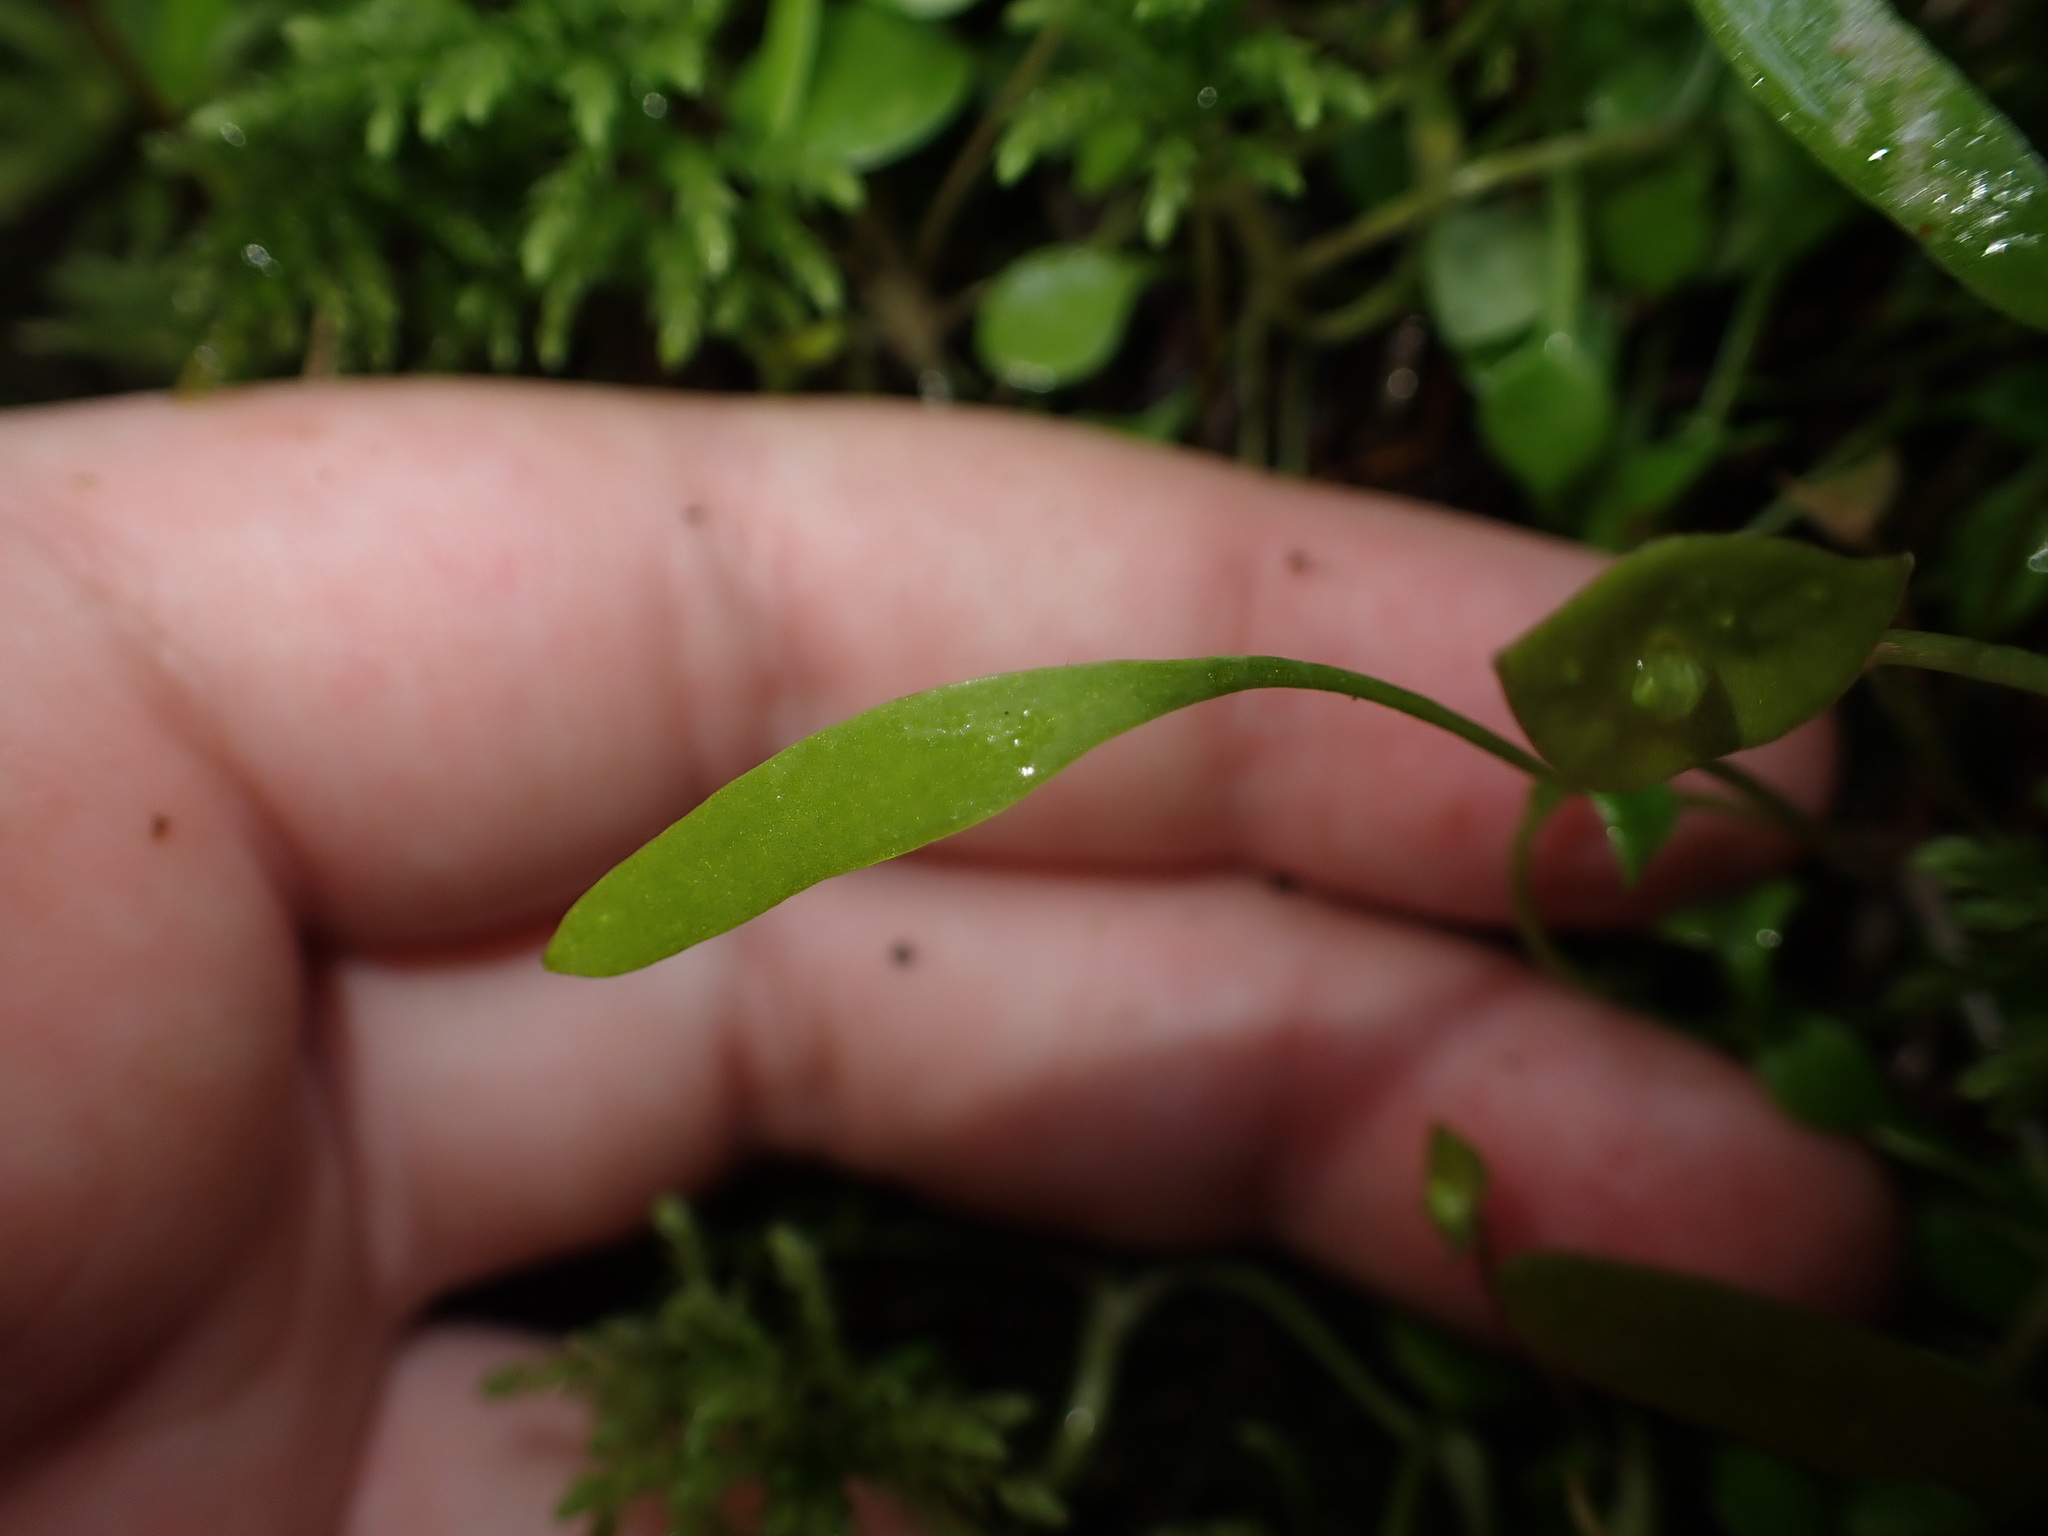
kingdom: Plantae
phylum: Tracheophyta
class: Magnoliopsida
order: Caryophyllales
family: Montiaceae
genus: Claytonia
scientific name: Claytonia perfoliata
